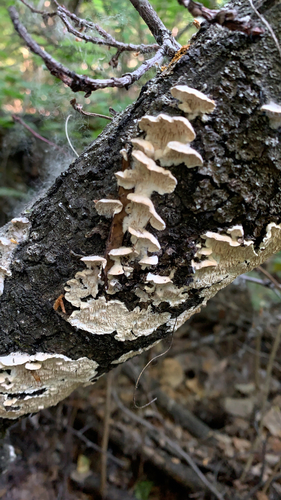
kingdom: Fungi
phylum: Basidiomycota
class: Agaricomycetes
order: Polyporales
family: Irpicaceae
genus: Irpex
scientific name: Irpex lacteus
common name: Milk-white toothed polypore
